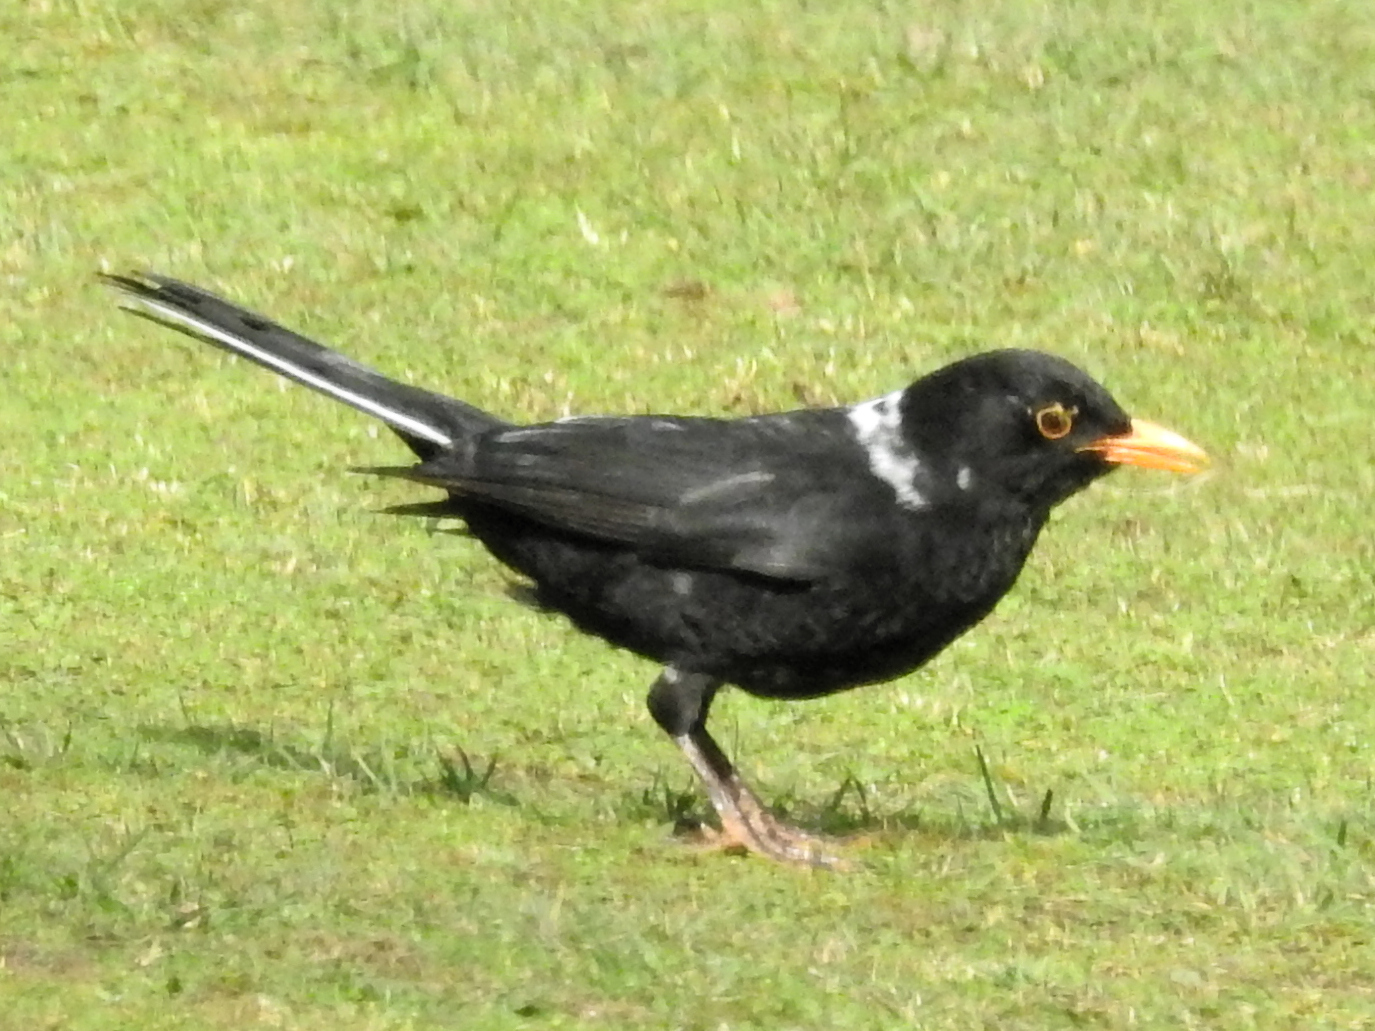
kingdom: Animalia
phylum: Chordata
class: Aves
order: Passeriformes
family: Turdidae
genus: Turdus
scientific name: Turdus merula
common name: Common blackbird
